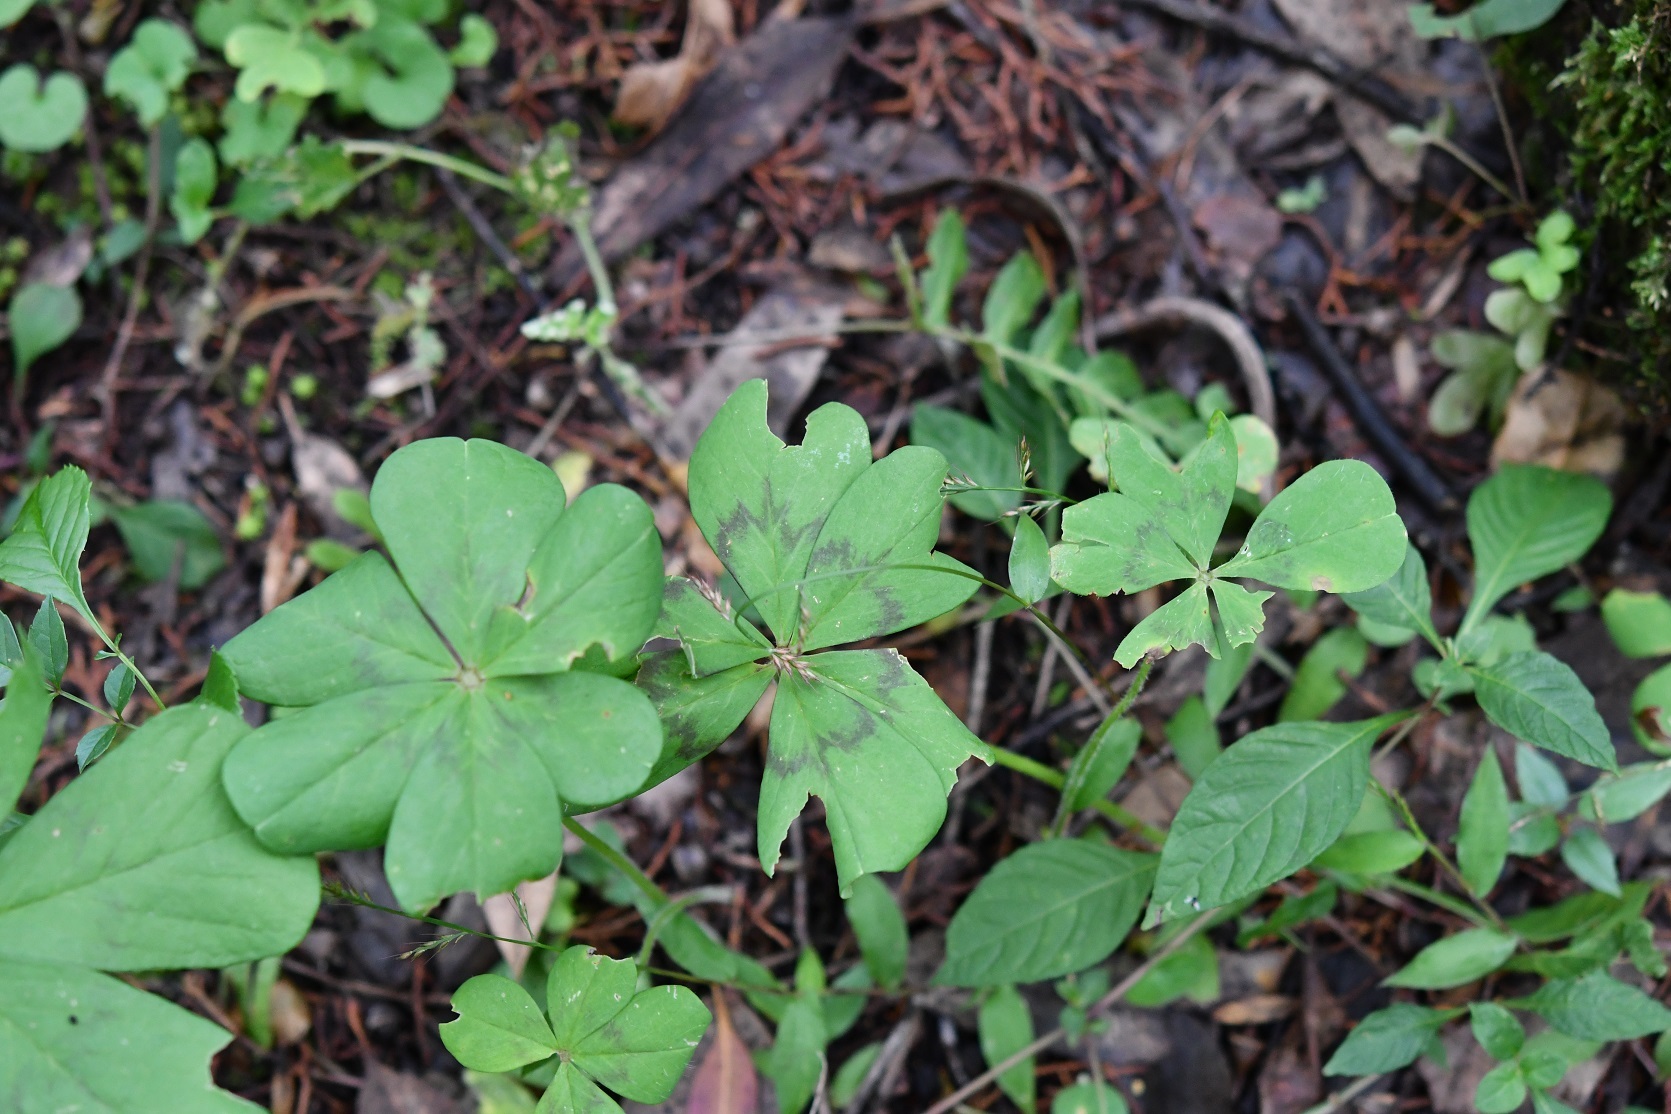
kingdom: Plantae
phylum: Tracheophyta
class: Magnoliopsida
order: Oxalidales
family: Oxalidaceae
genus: Oxalis
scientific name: Oxalis nelsonii
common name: Sorrel
